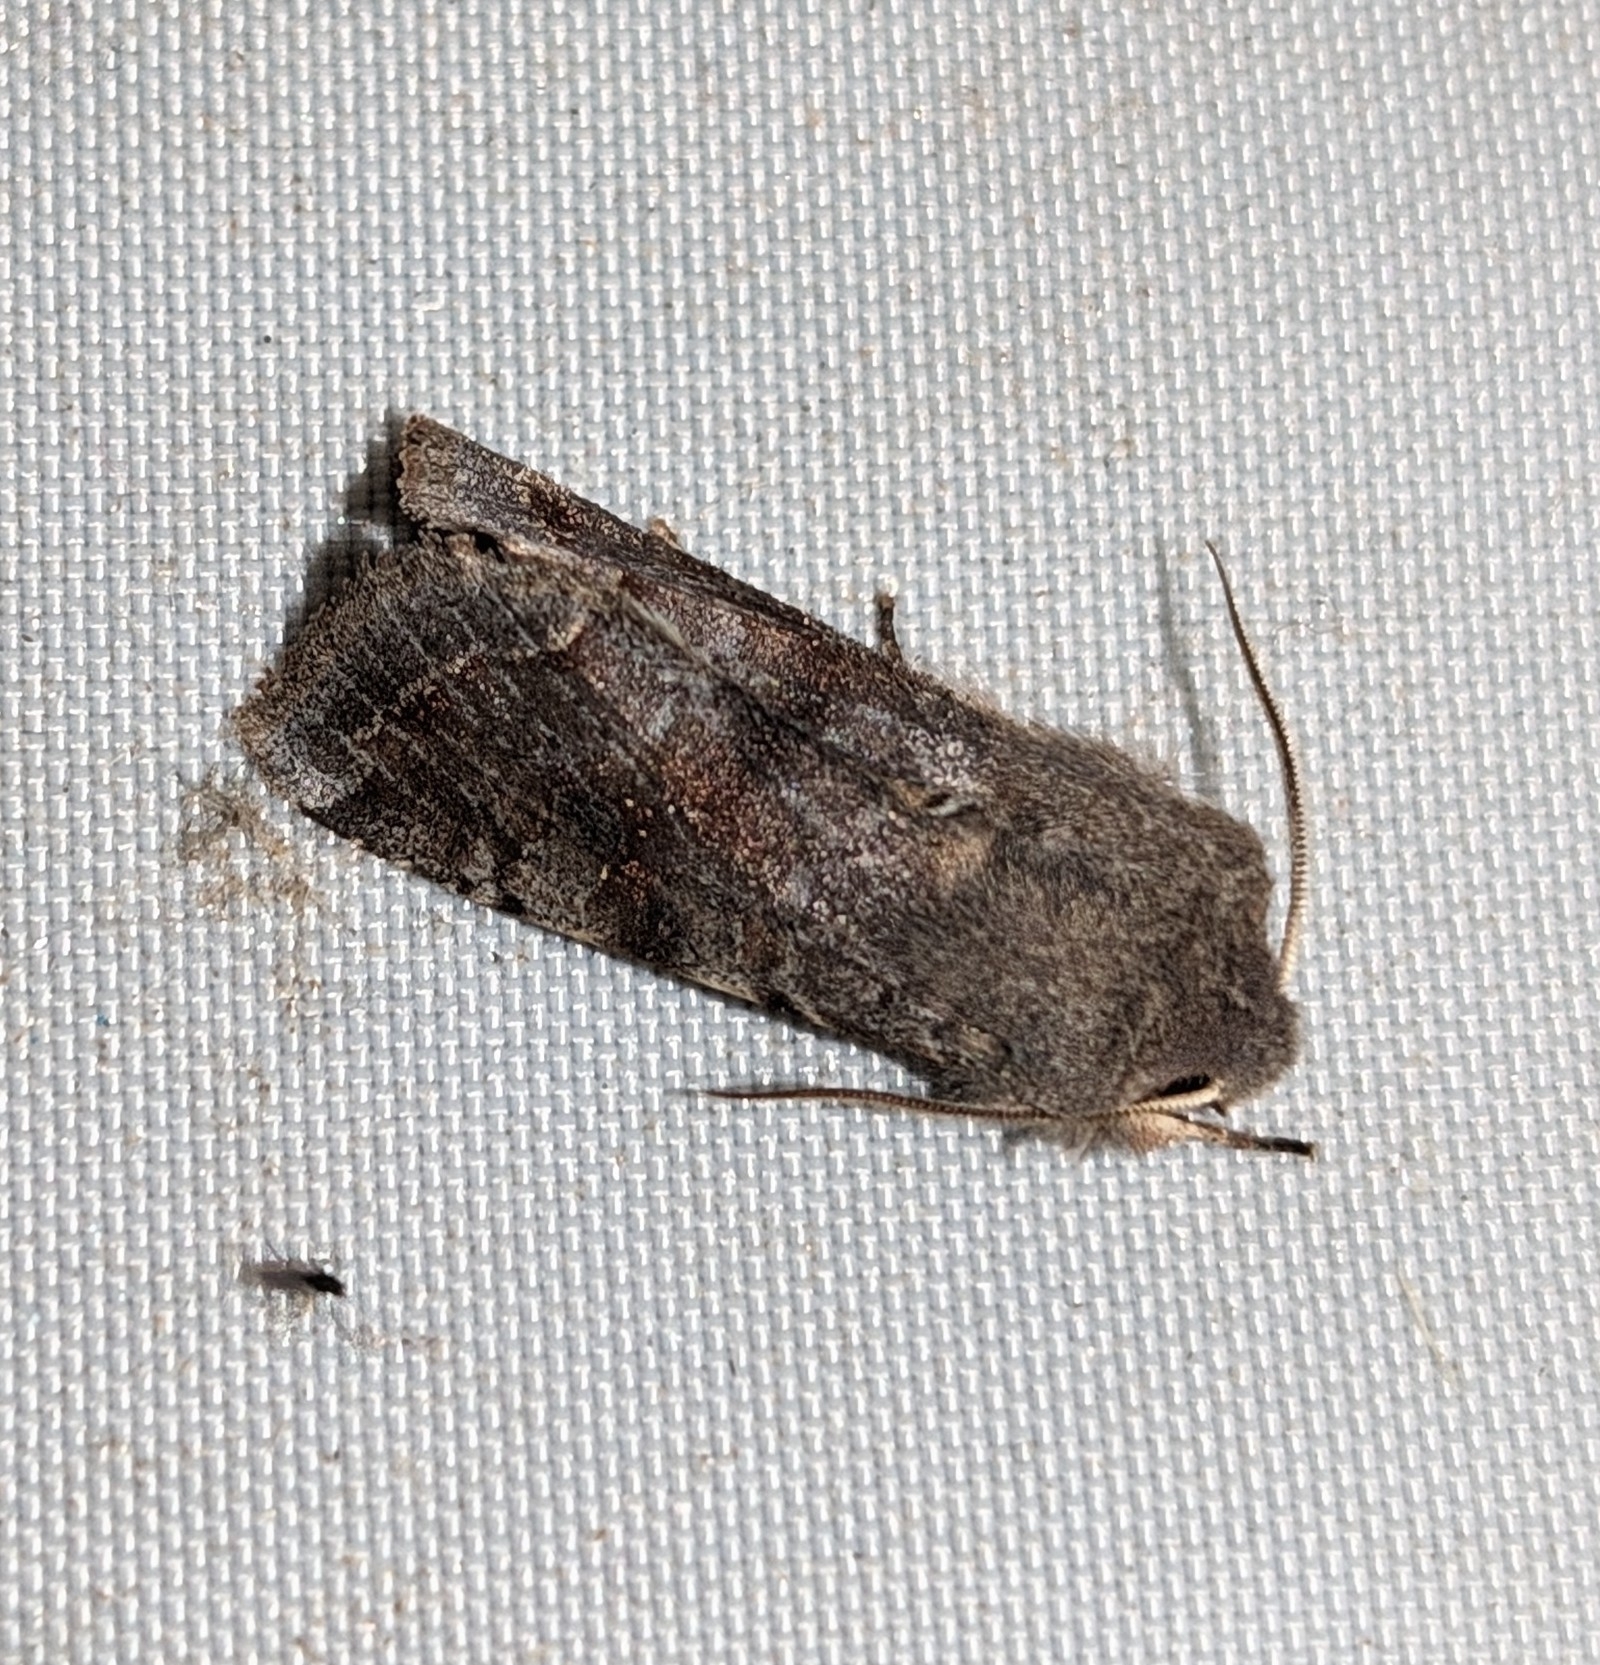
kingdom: Animalia
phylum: Arthropoda
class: Insecta
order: Lepidoptera
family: Noctuidae
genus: Orthosia
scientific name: Orthosia incerta
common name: Clouded drab
